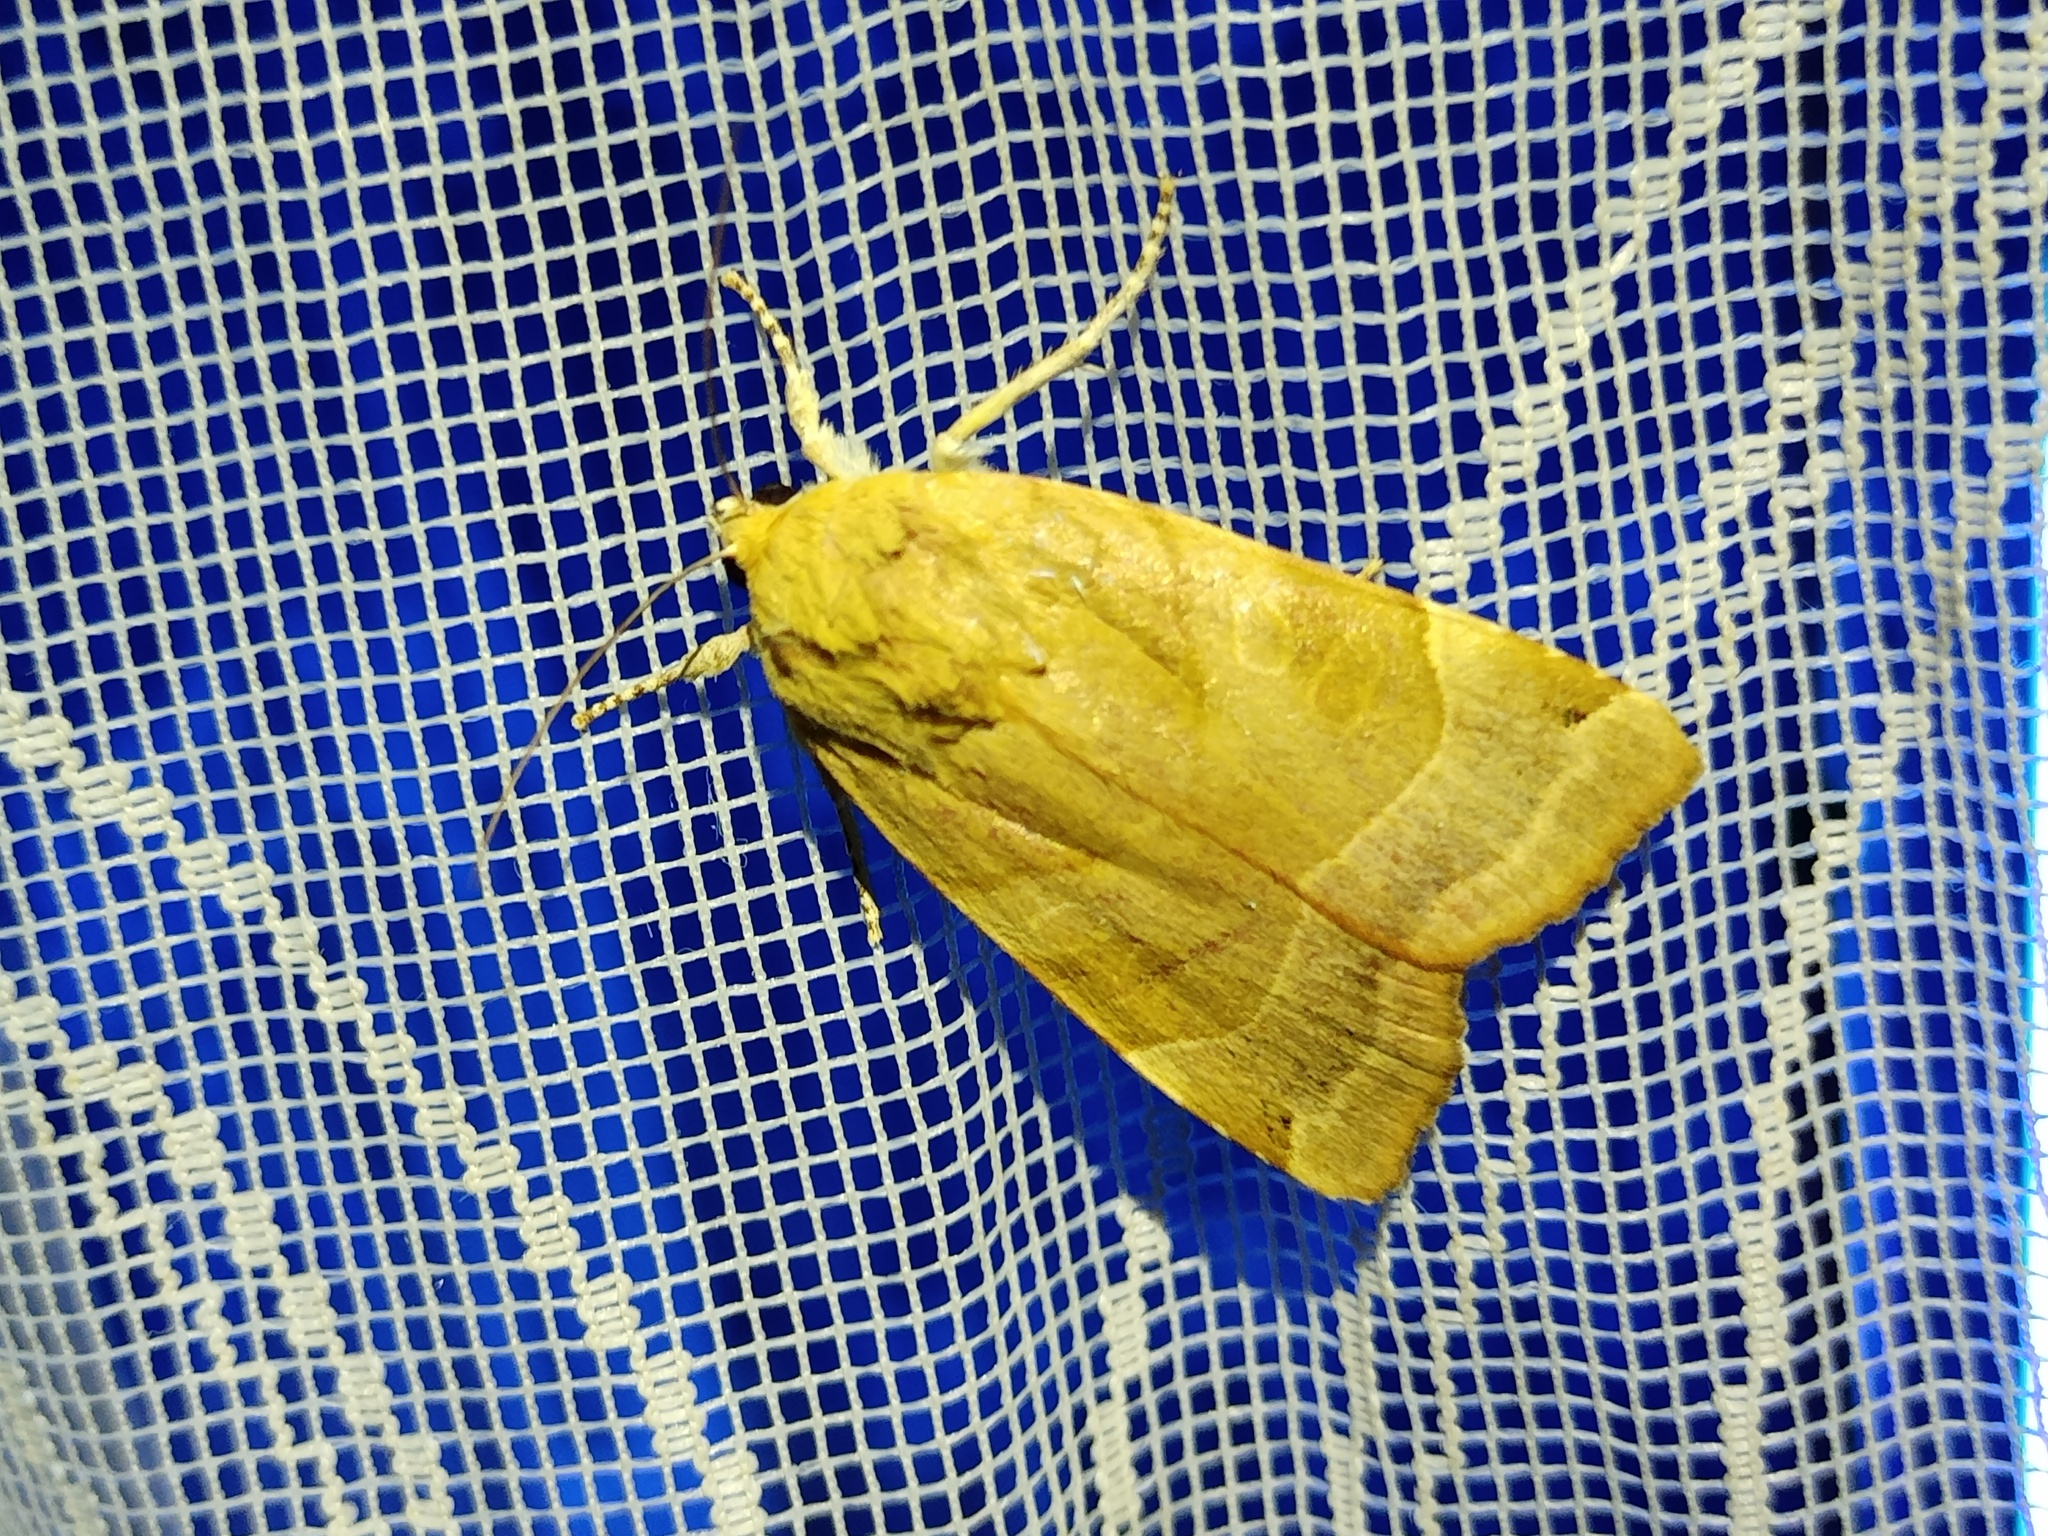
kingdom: Animalia
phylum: Arthropoda
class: Insecta
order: Lepidoptera
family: Noctuidae
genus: Noctua
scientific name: Noctua fimbriata
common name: Broad-bordered yellow underwing
